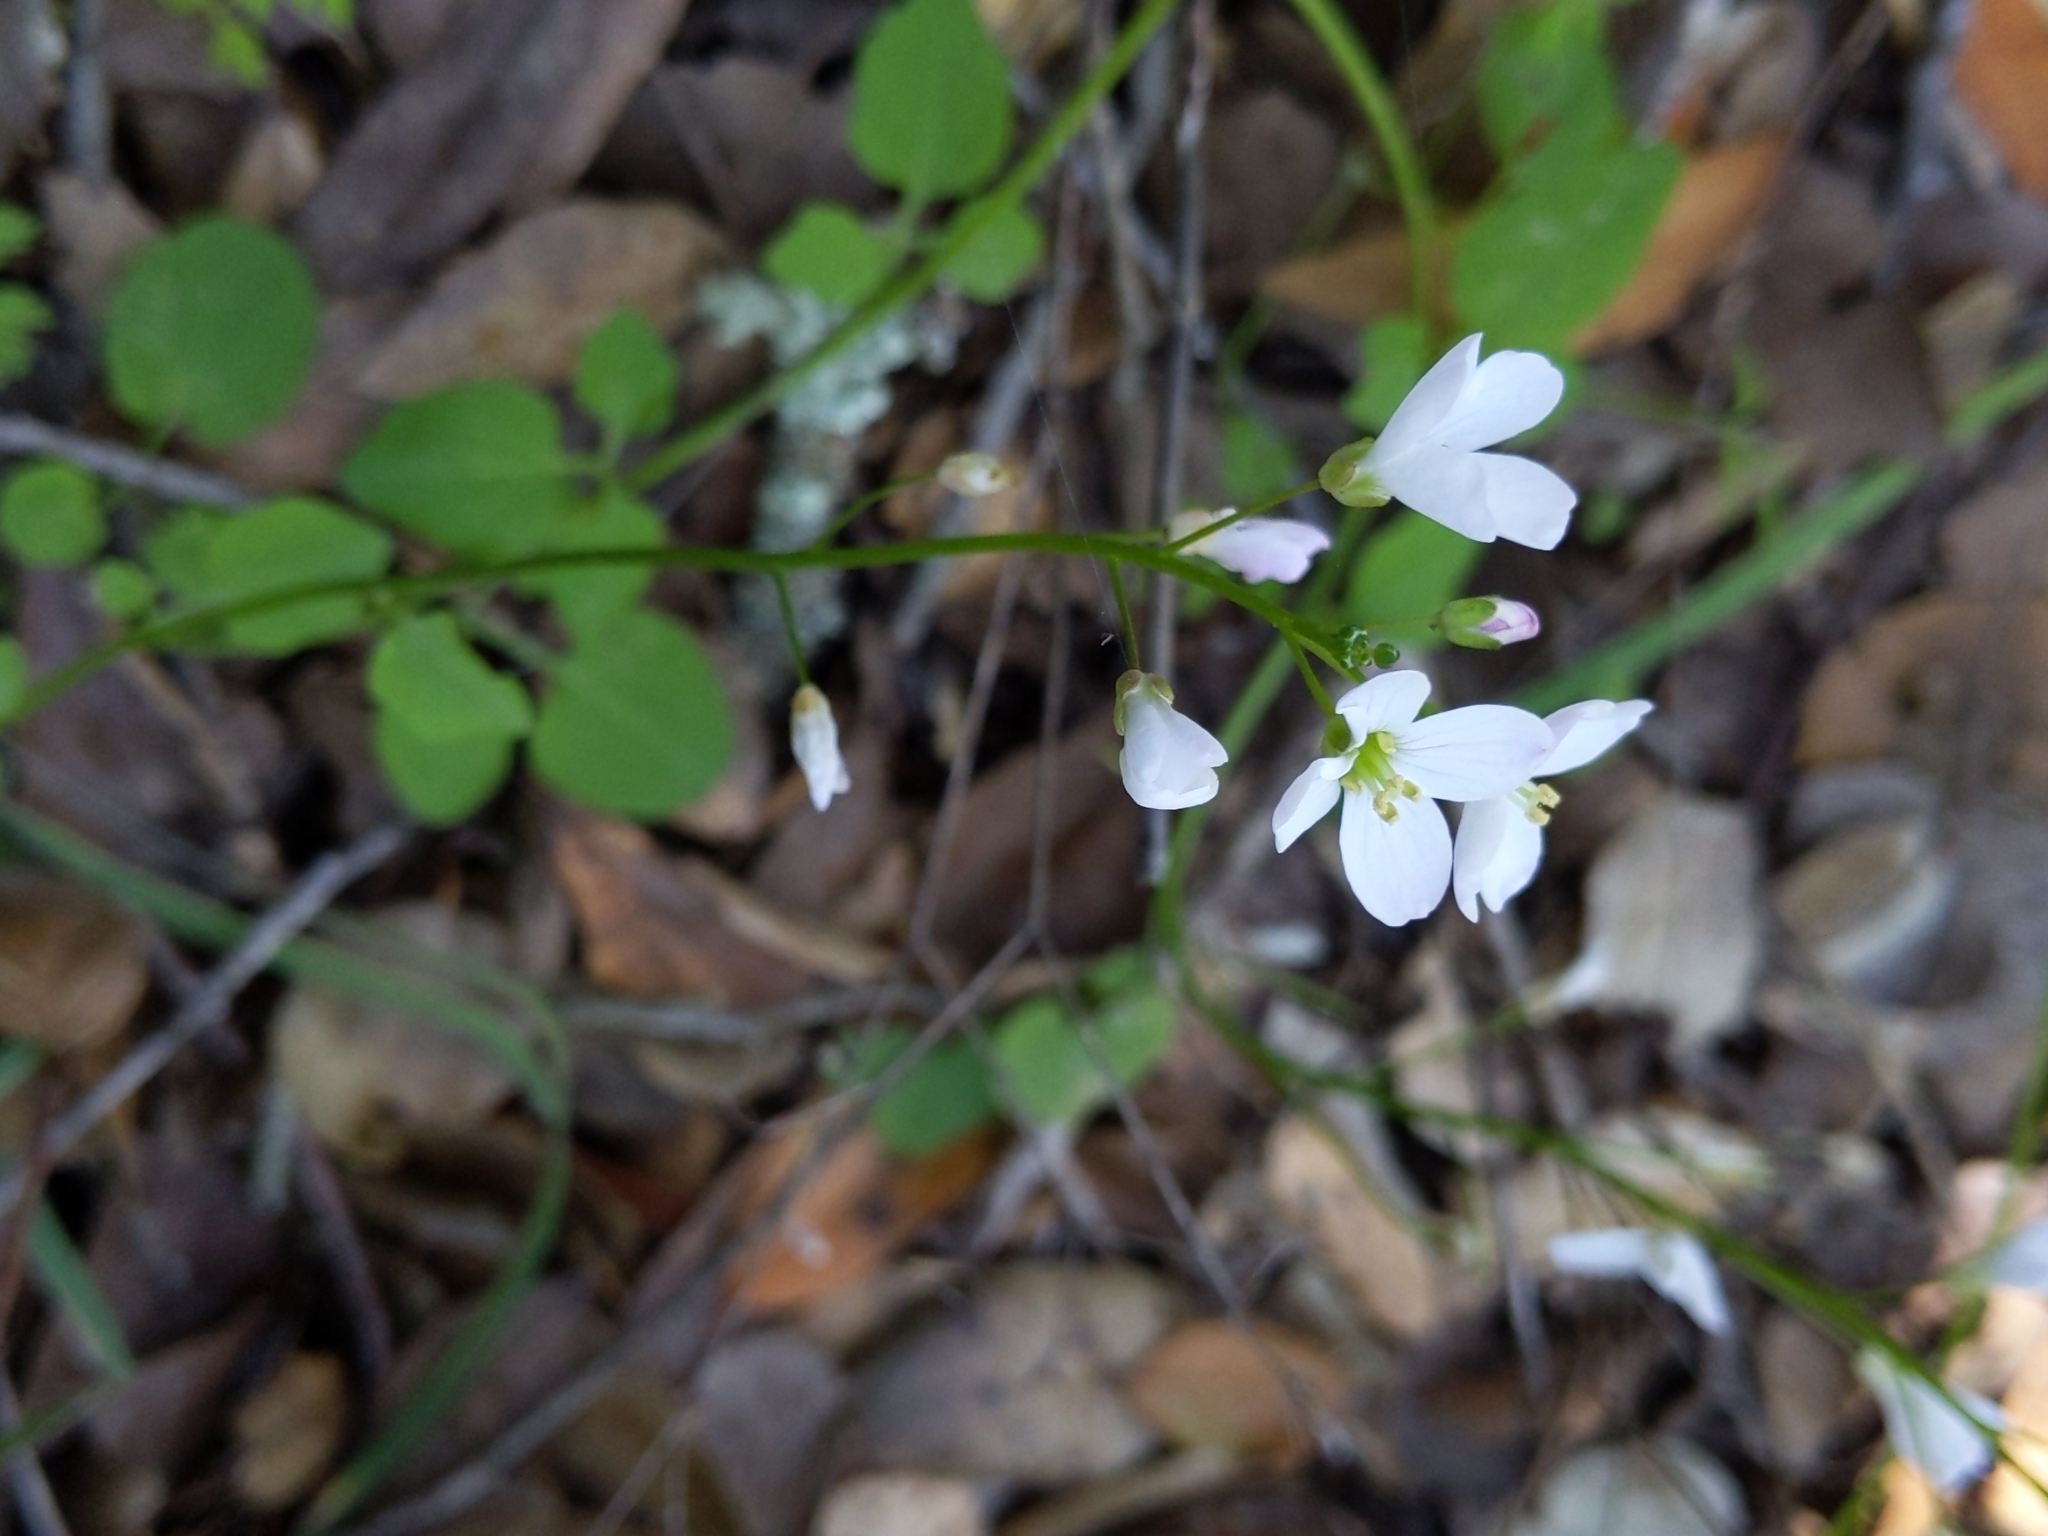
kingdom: Plantae
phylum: Tracheophyta
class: Magnoliopsida
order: Brassicales
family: Brassicaceae
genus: Cardamine
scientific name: Cardamine californica
